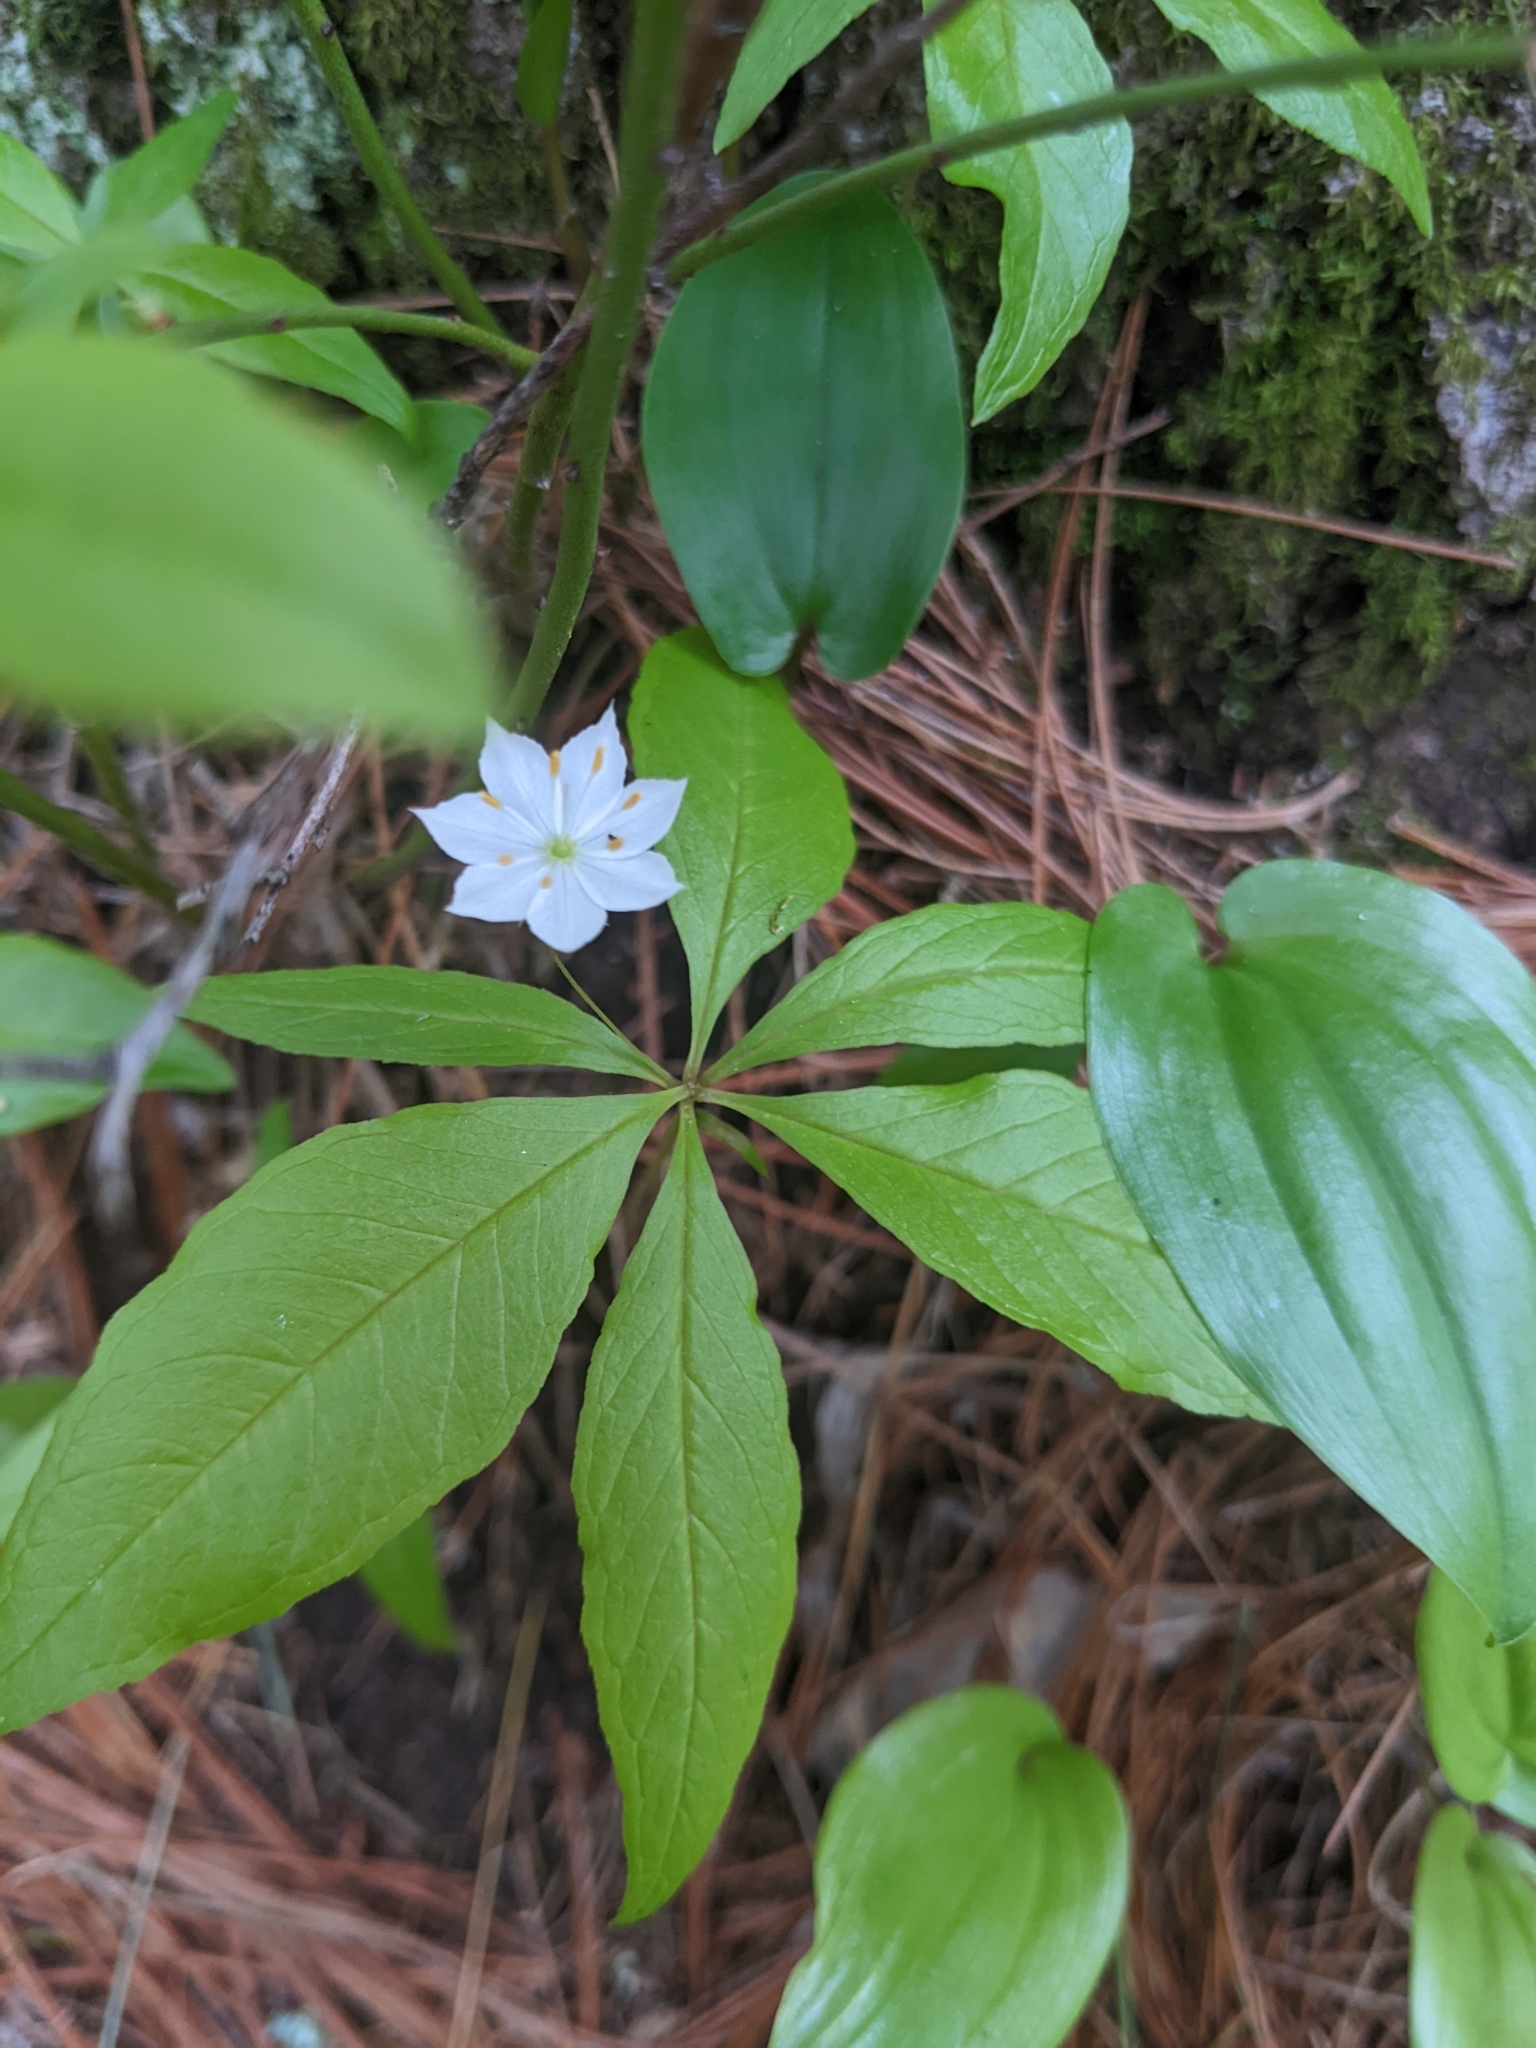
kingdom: Plantae
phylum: Tracheophyta
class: Magnoliopsida
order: Ericales
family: Primulaceae
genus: Lysimachia
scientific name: Lysimachia borealis
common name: American starflower
